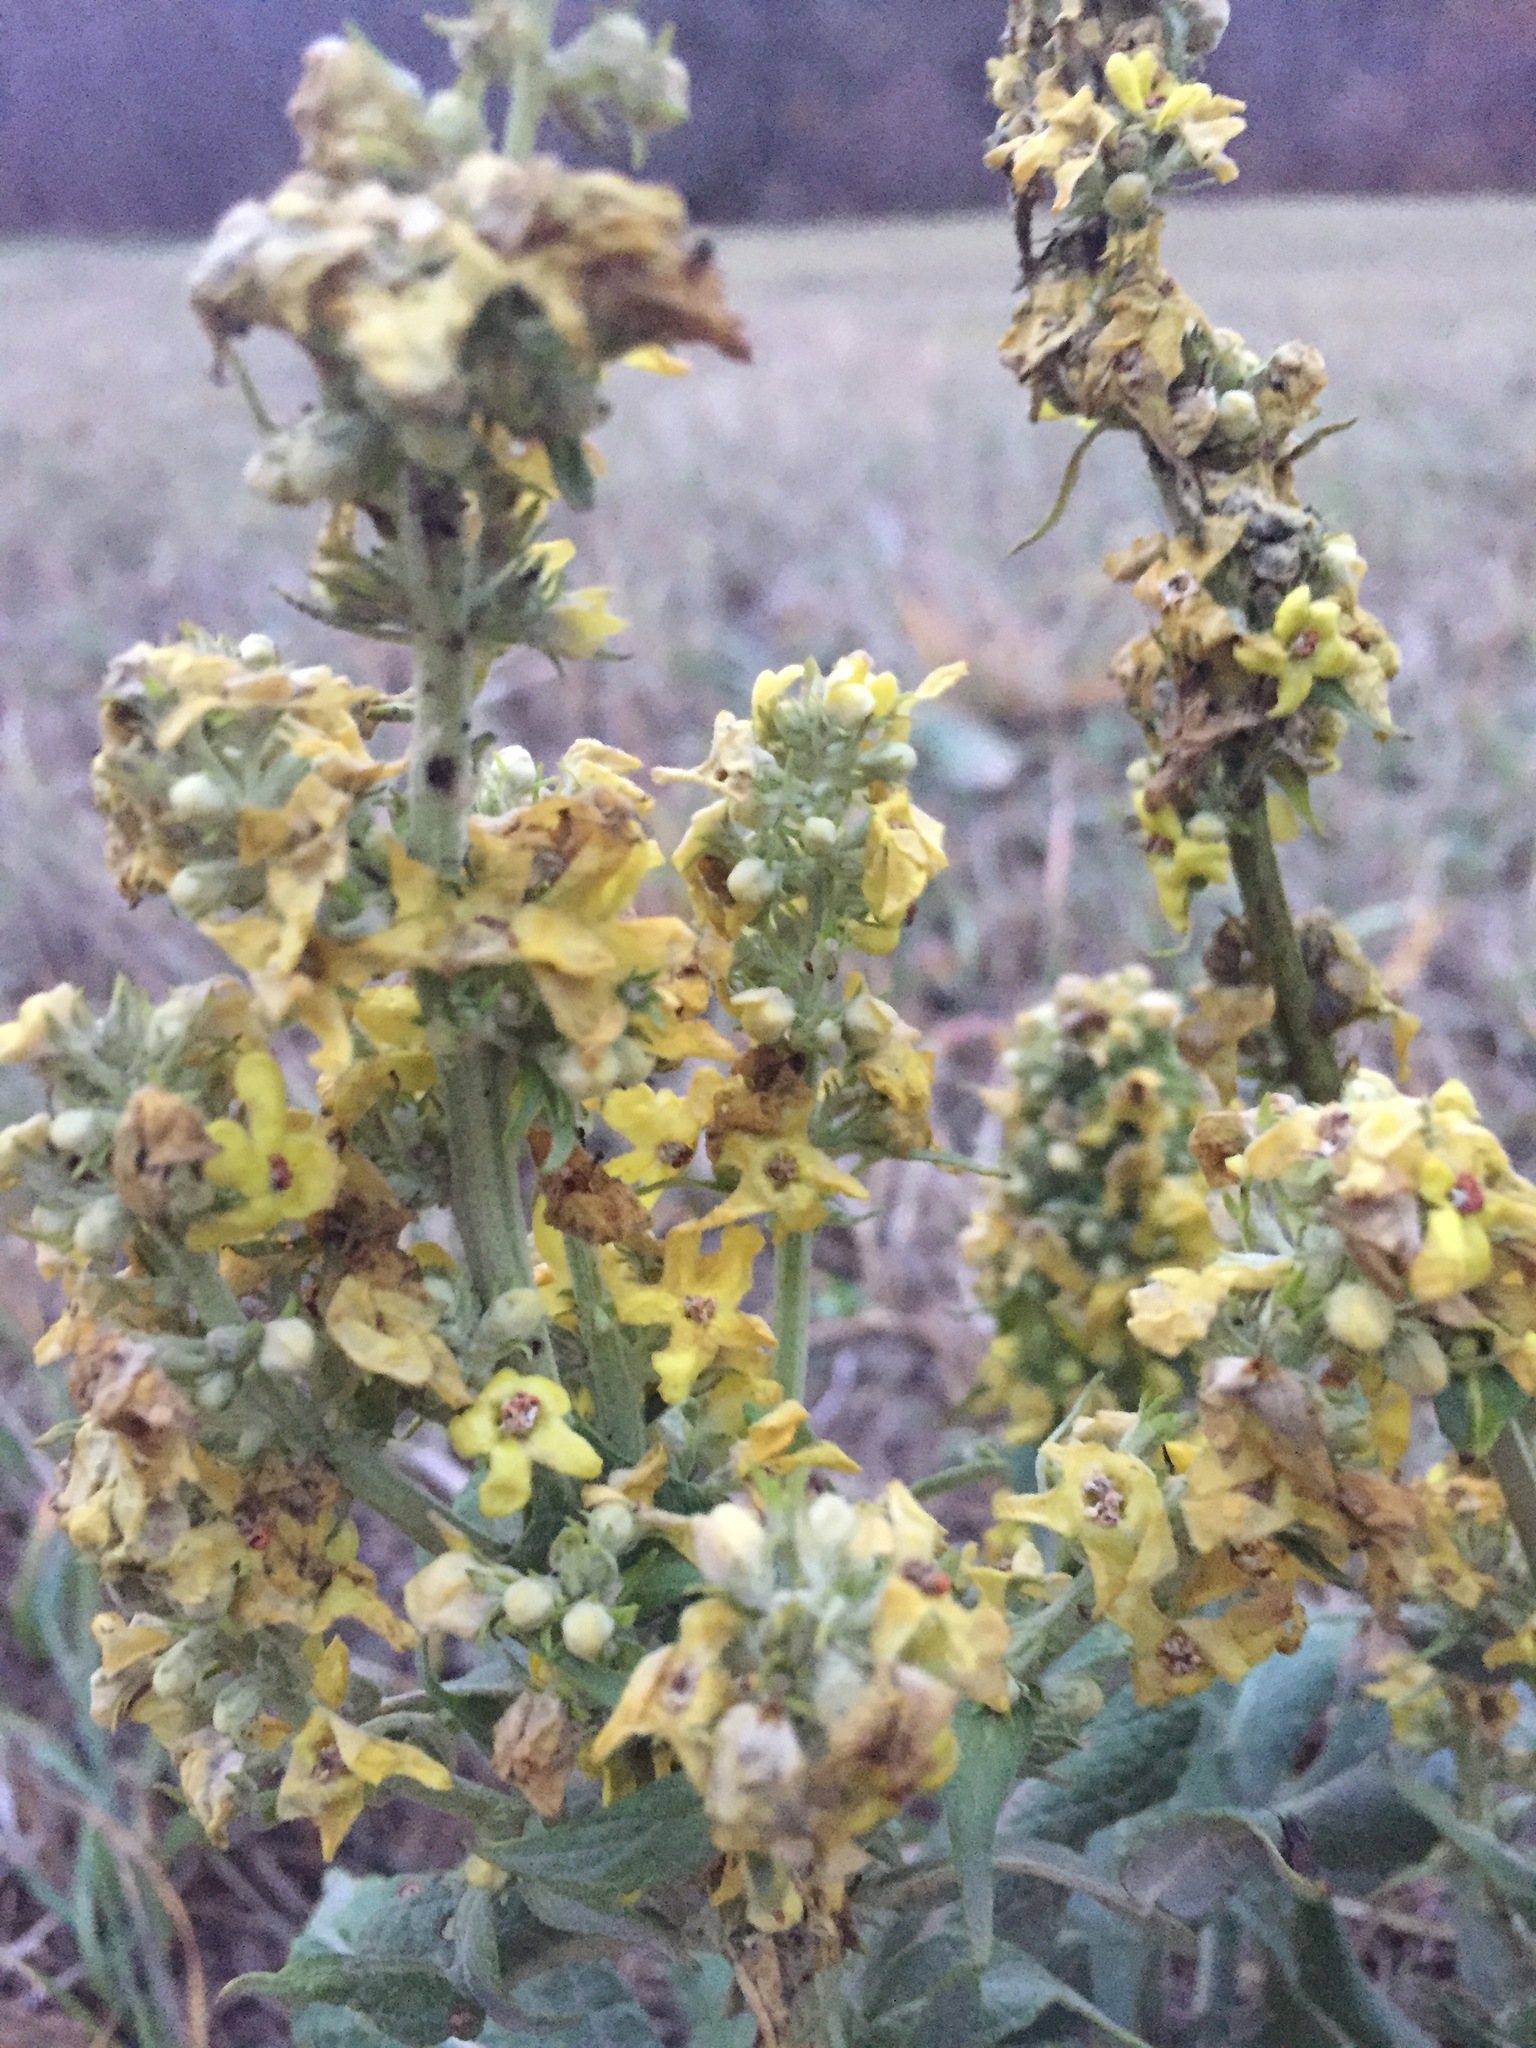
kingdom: Plantae
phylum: Tracheophyta
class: Magnoliopsida
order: Lamiales
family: Scrophulariaceae
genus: Verbascum
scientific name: Verbascum lychnitis
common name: White mullein
